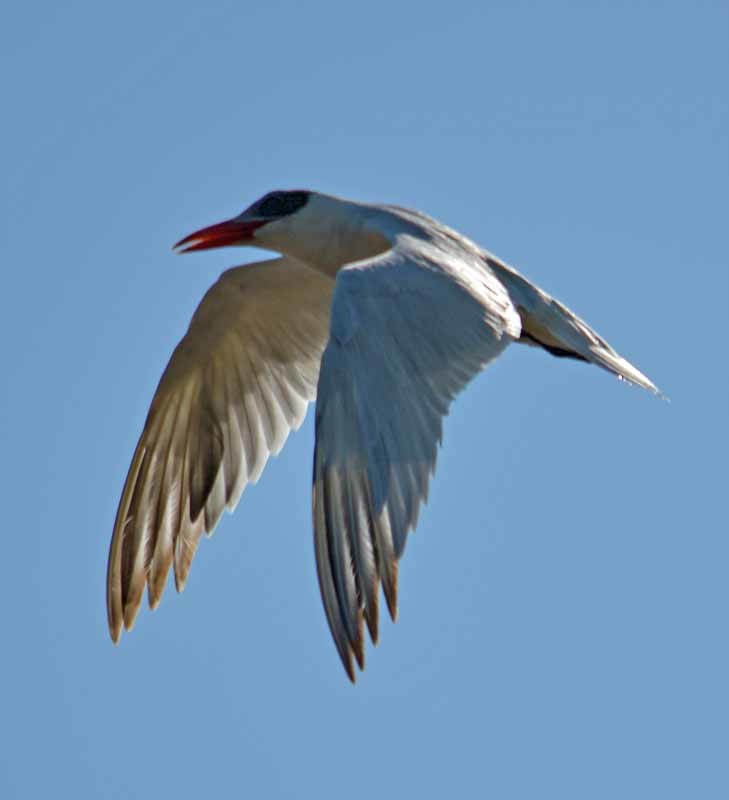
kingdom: Animalia
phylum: Chordata
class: Aves
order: Charadriiformes
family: Laridae
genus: Hydroprogne
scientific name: Hydroprogne caspia
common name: Caspian tern
